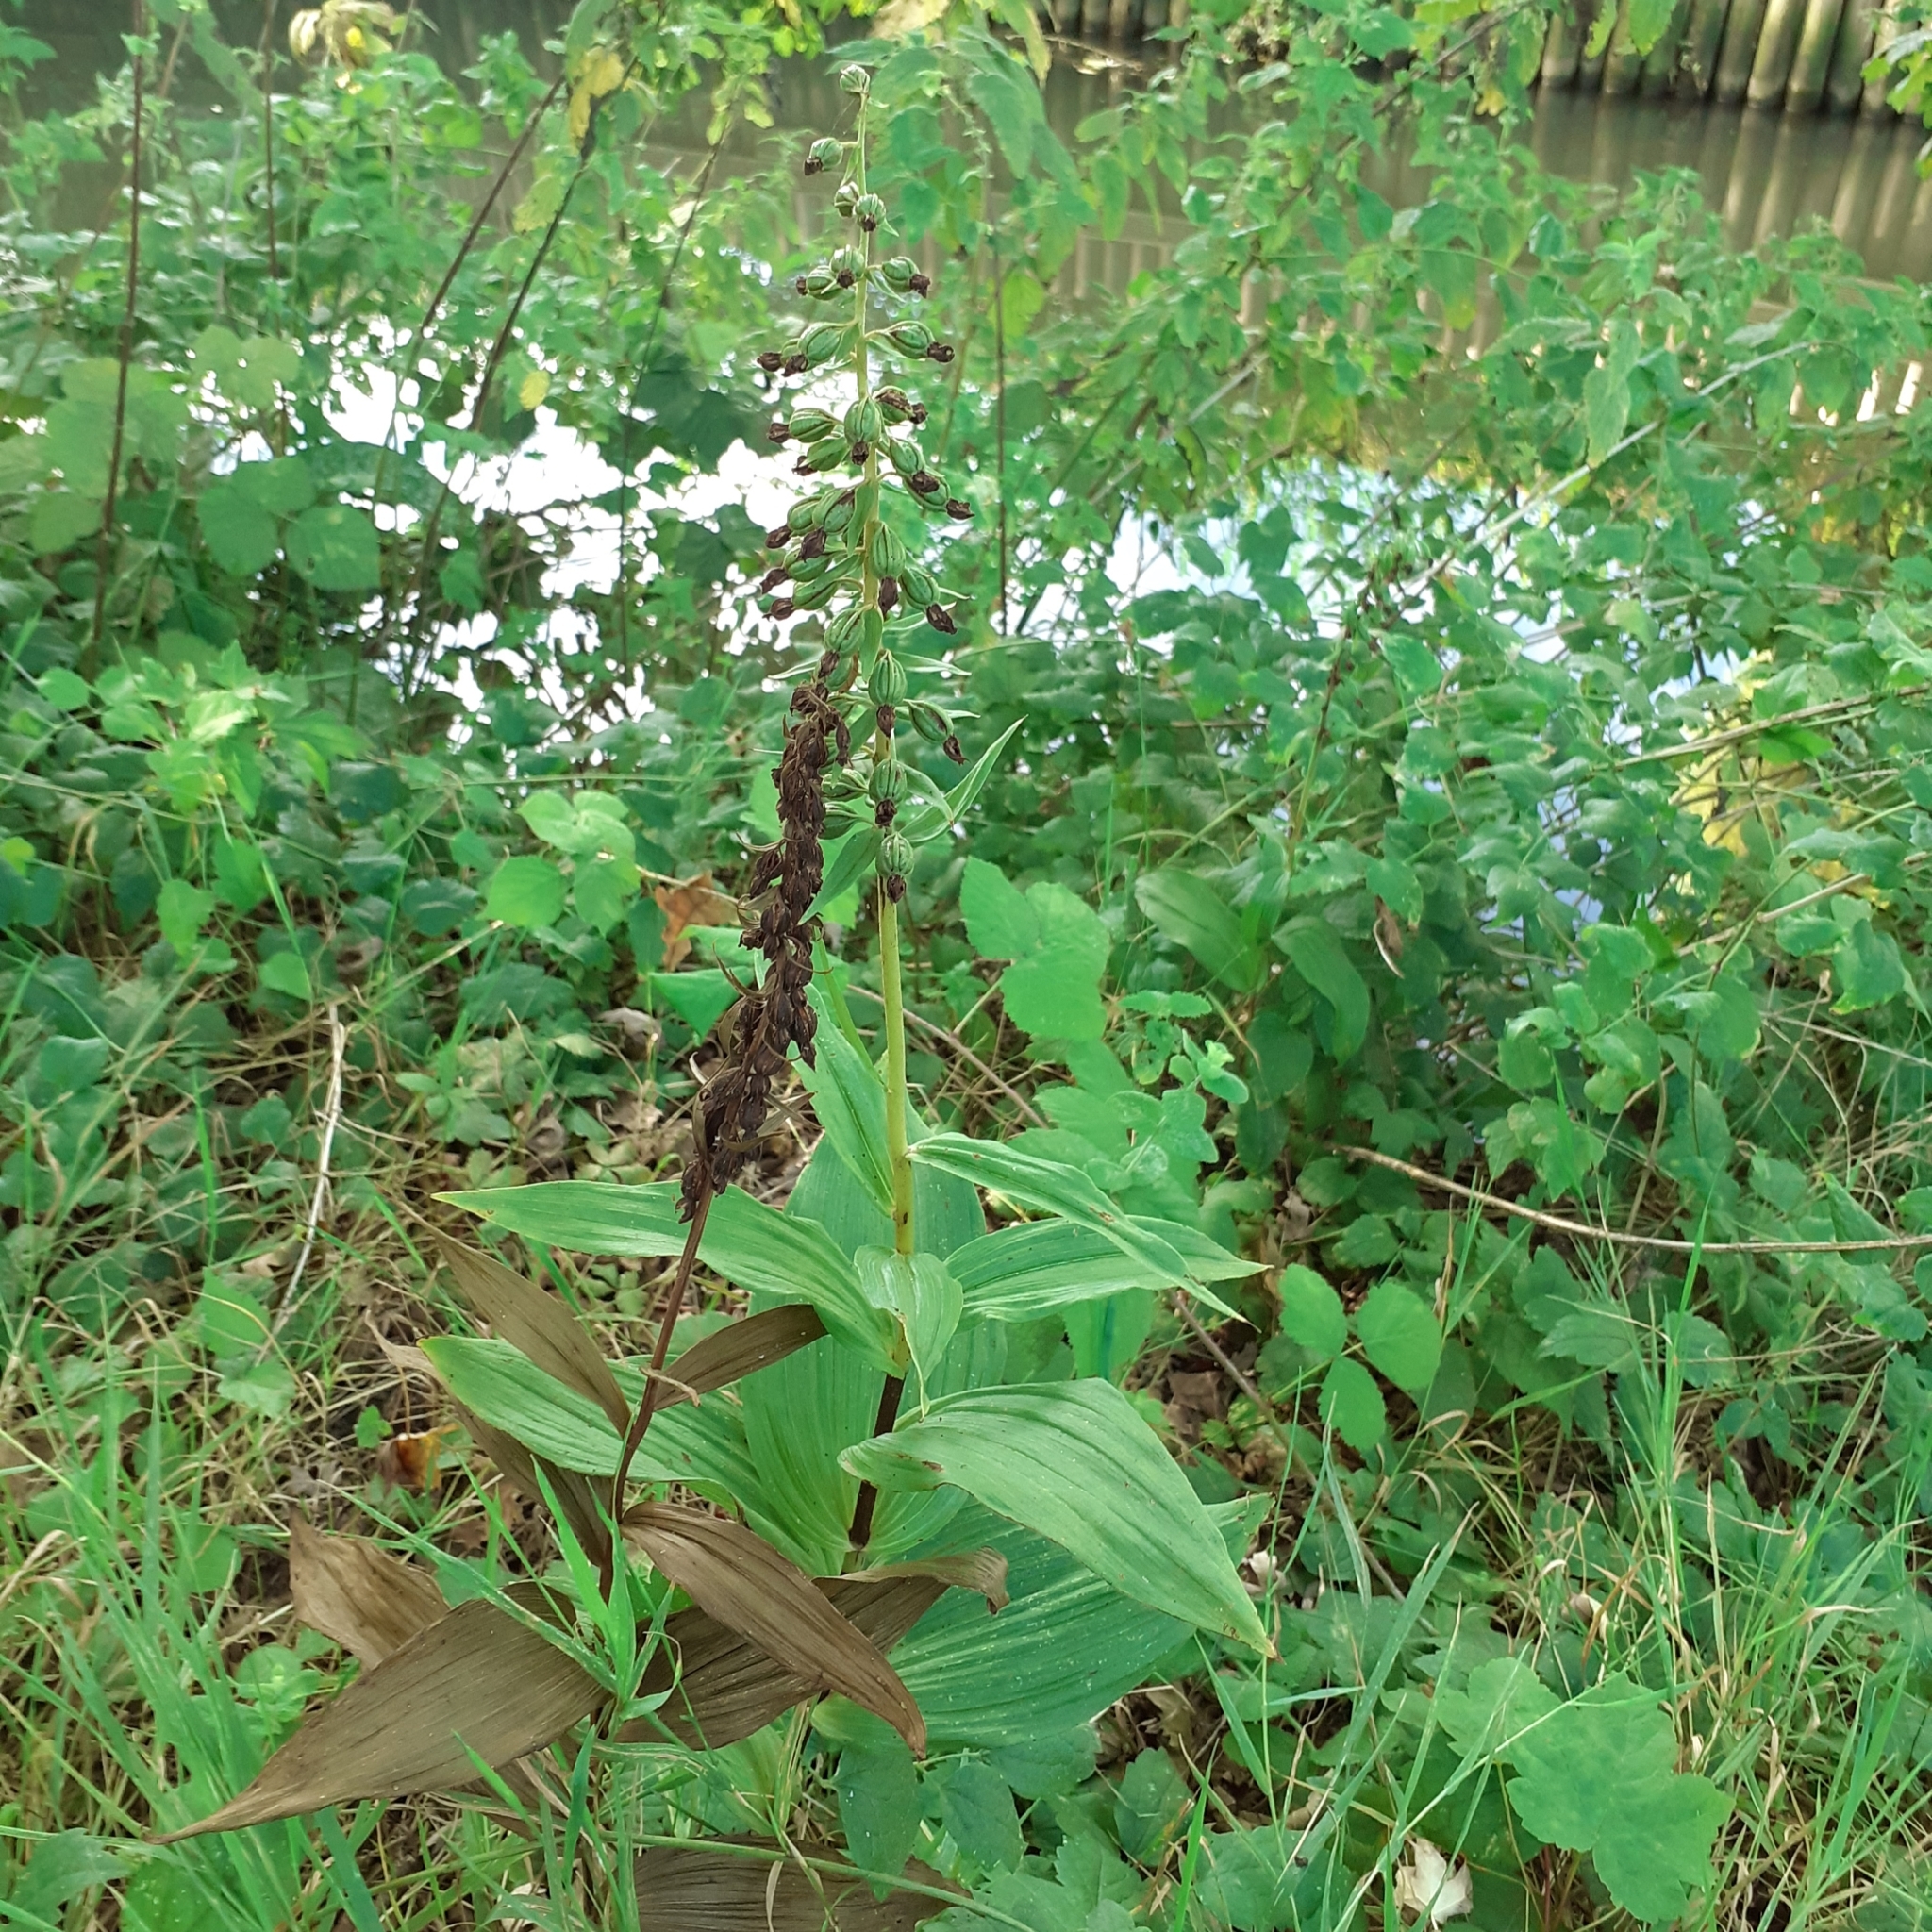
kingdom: Plantae
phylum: Tracheophyta
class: Liliopsida
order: Asparagales
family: Orchidaceae
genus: Epipactis
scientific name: Epipactis helleborine
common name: Broad-leaved helleborine
